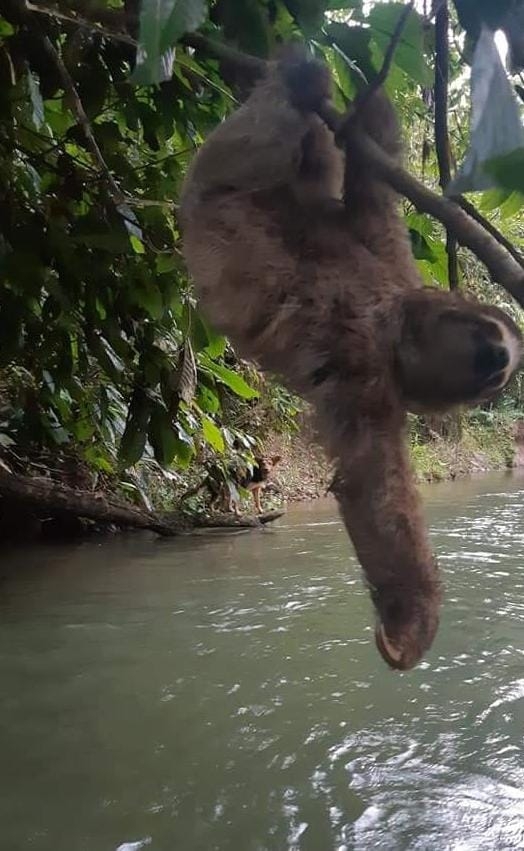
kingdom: Animalia
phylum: Chordata
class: Mammalia
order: Pilosa
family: Bradypodidae
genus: Bradypus
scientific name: Bradypus variegatus
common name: Brown-throated three-toed sloth
